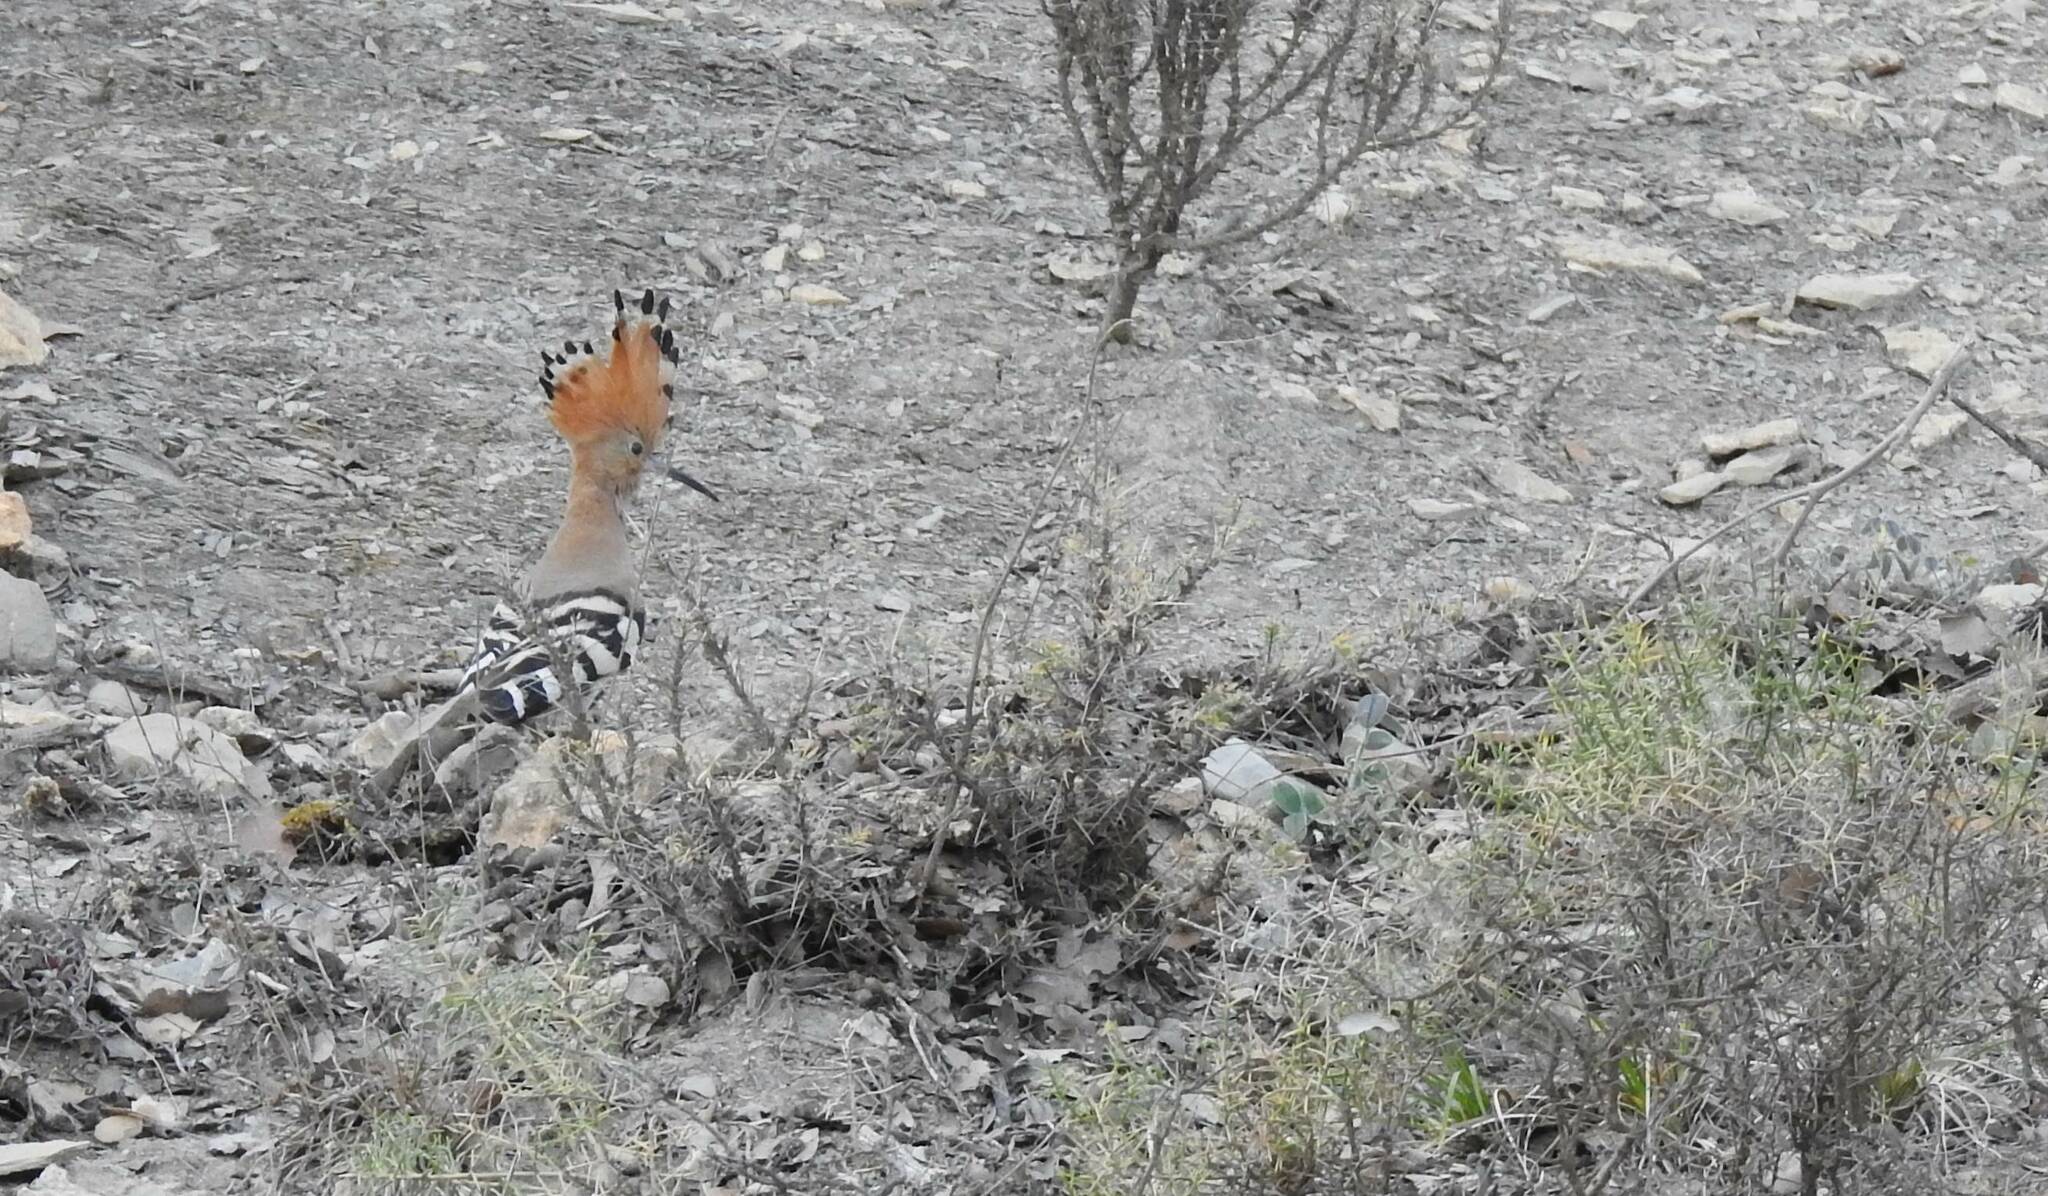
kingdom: Animalia
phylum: Chordata
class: Aves
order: Bucerotiformes
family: Upupidae
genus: Upupa
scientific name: Upupa epops
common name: Eurasian hoopoe
